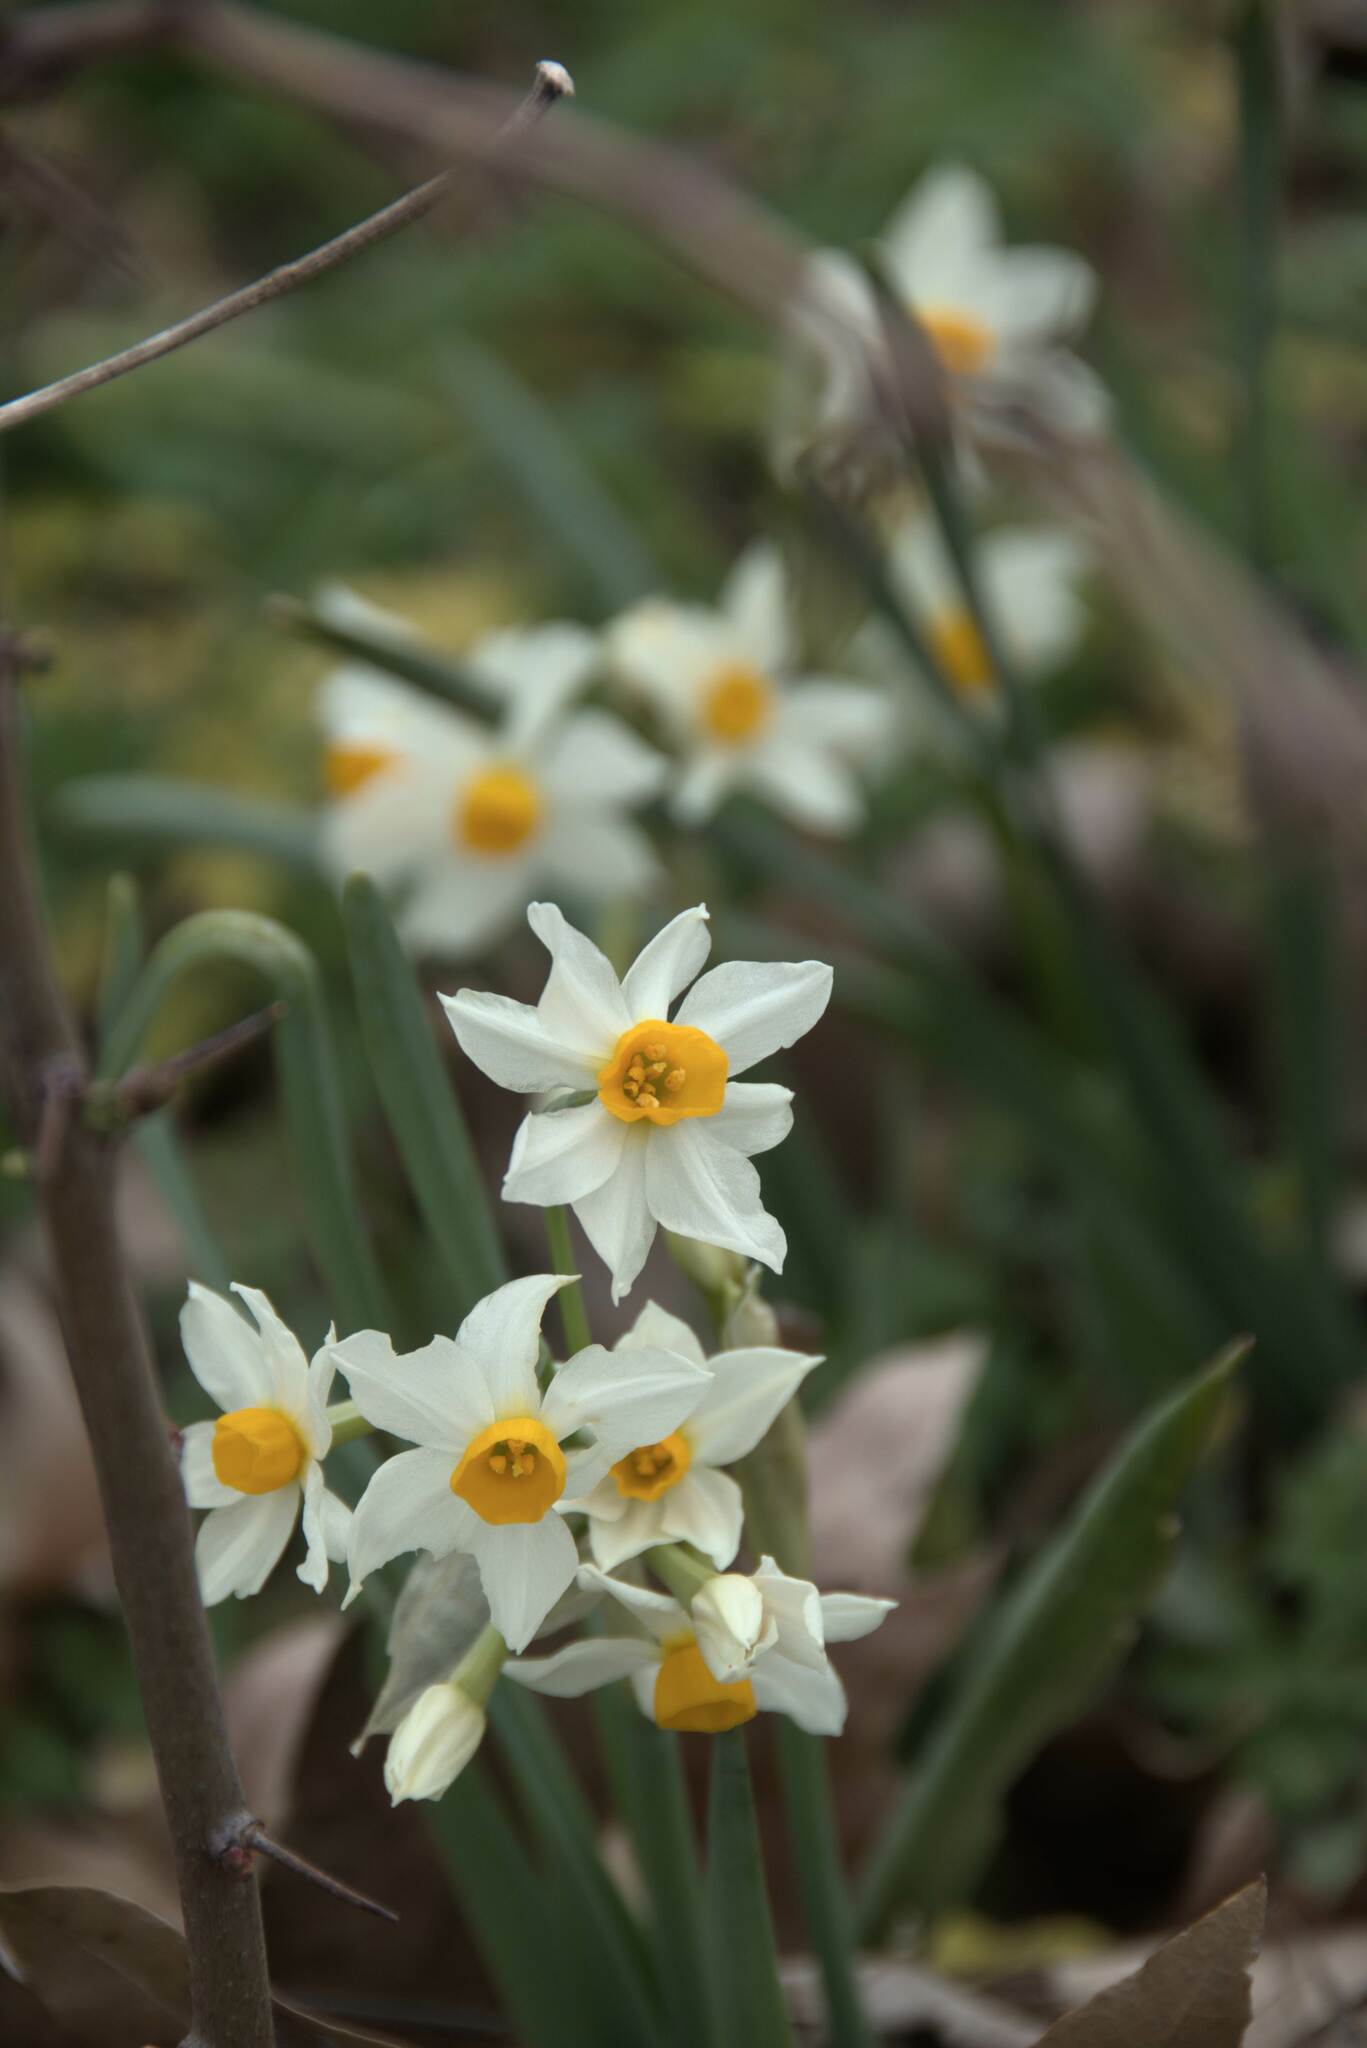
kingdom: Plantae
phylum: Tracheophyta
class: Liliopsida
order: Asparagales
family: Amaryllidaceae
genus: Narcissus
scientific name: Narcissus tazetta
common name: Bunch-flowered daffodil
